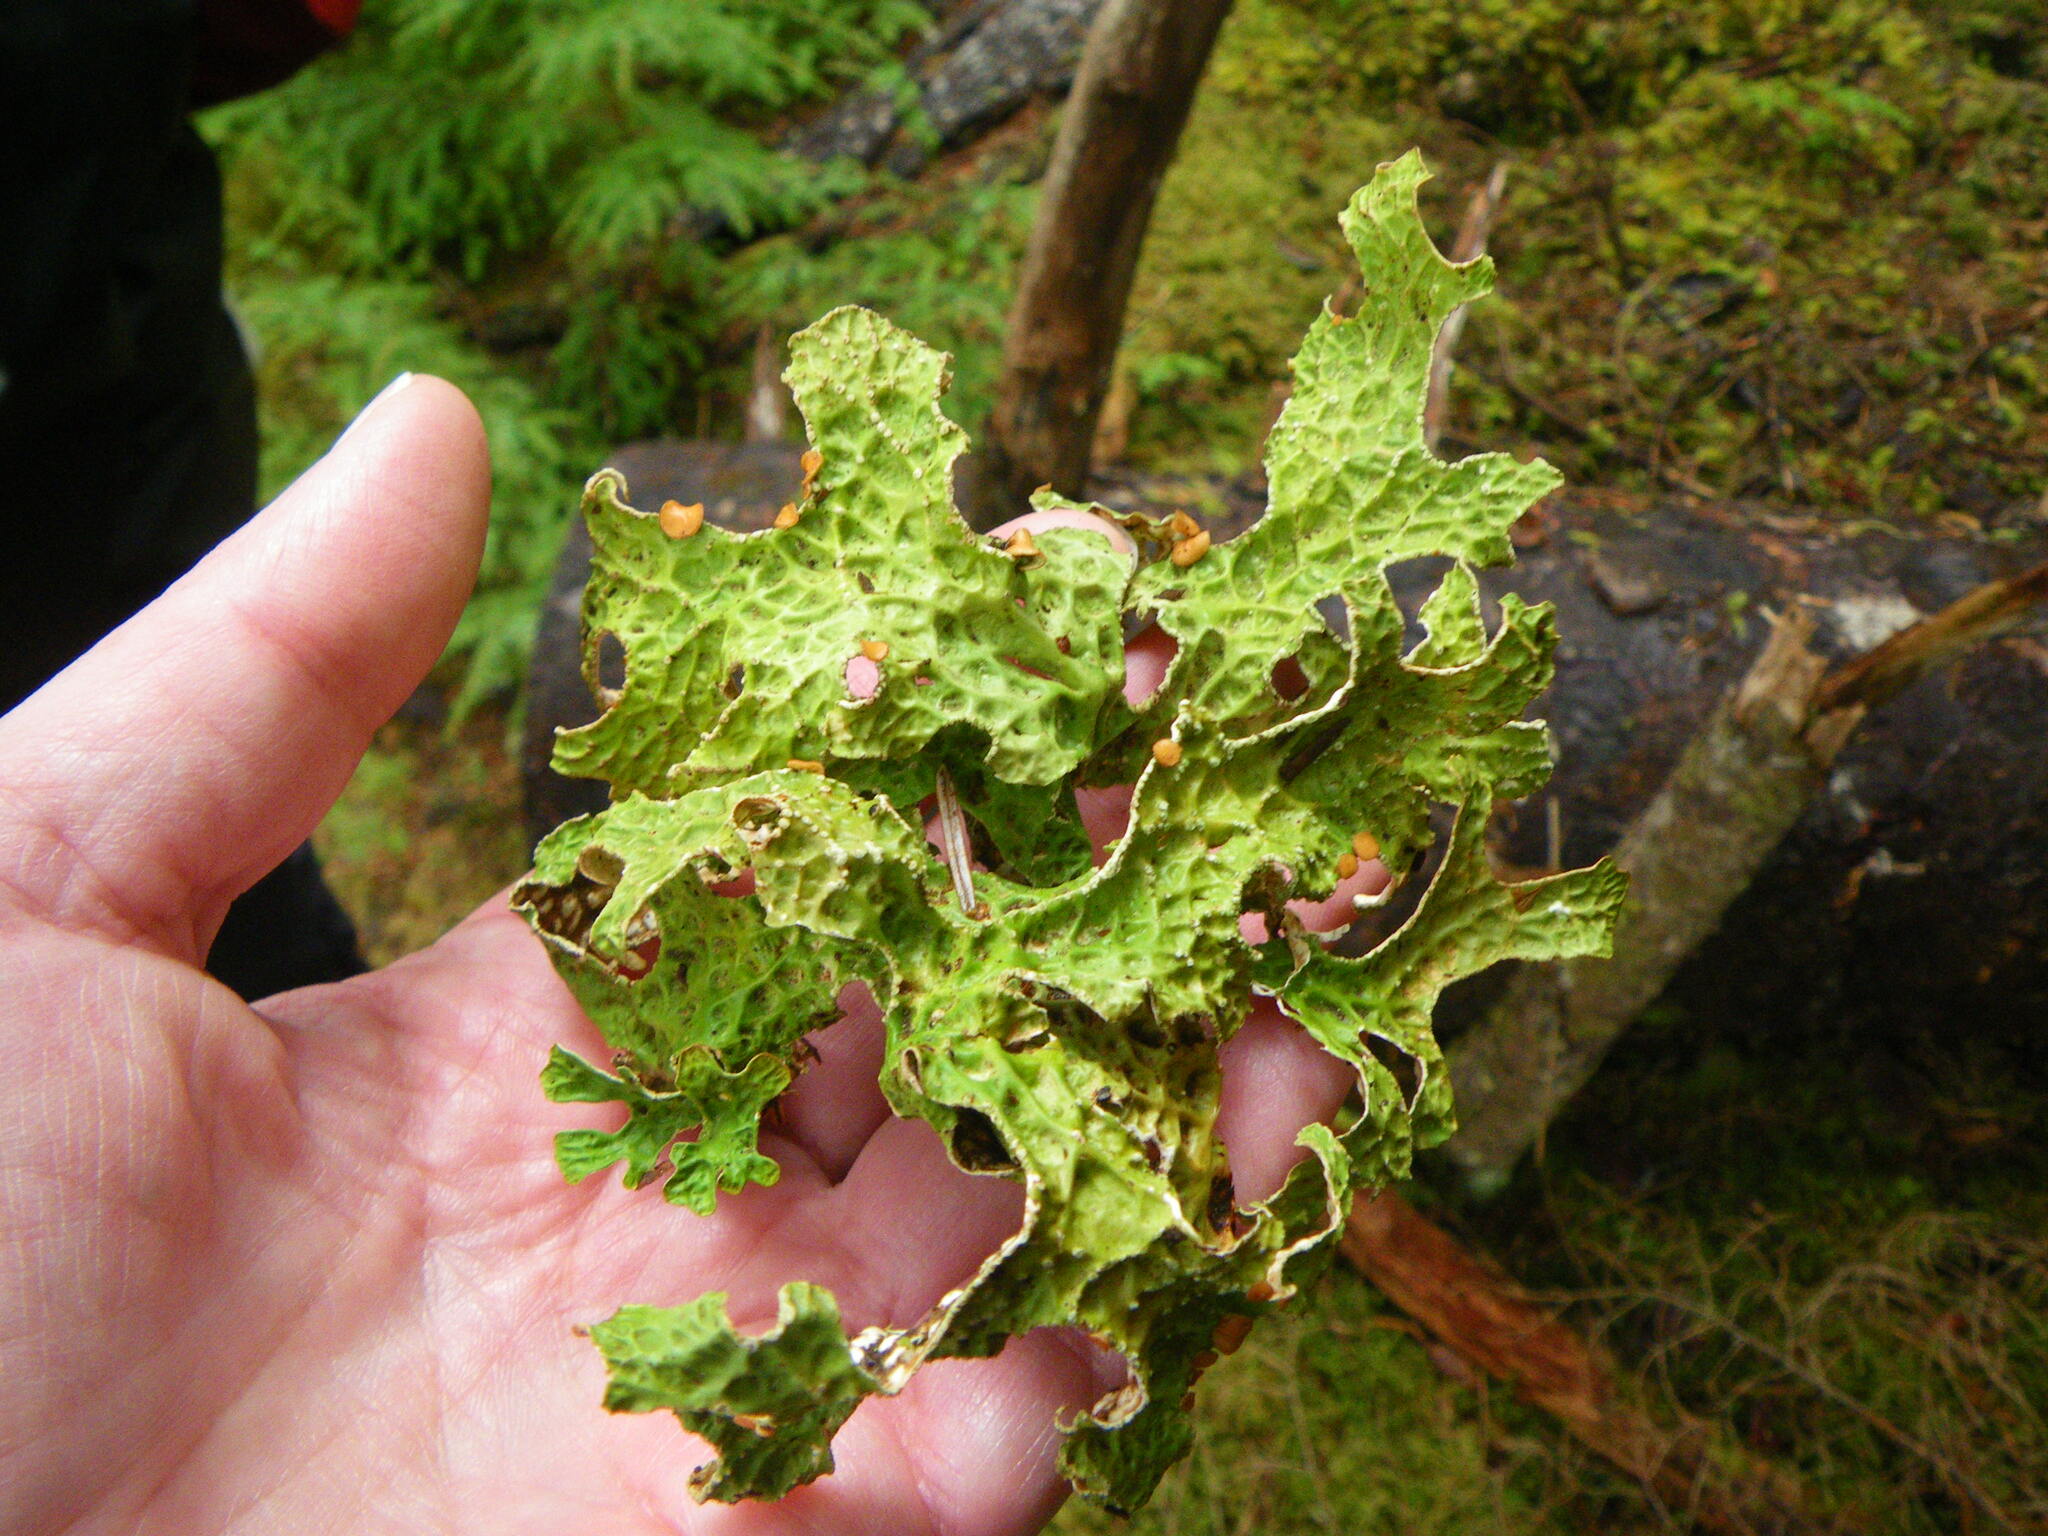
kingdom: Fungi
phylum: Ascomycota
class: Lecanoromycetes
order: Peltigerales
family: Lobariaceae
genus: Lobaria
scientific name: Lobaria pulmonaria
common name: Lungwort
